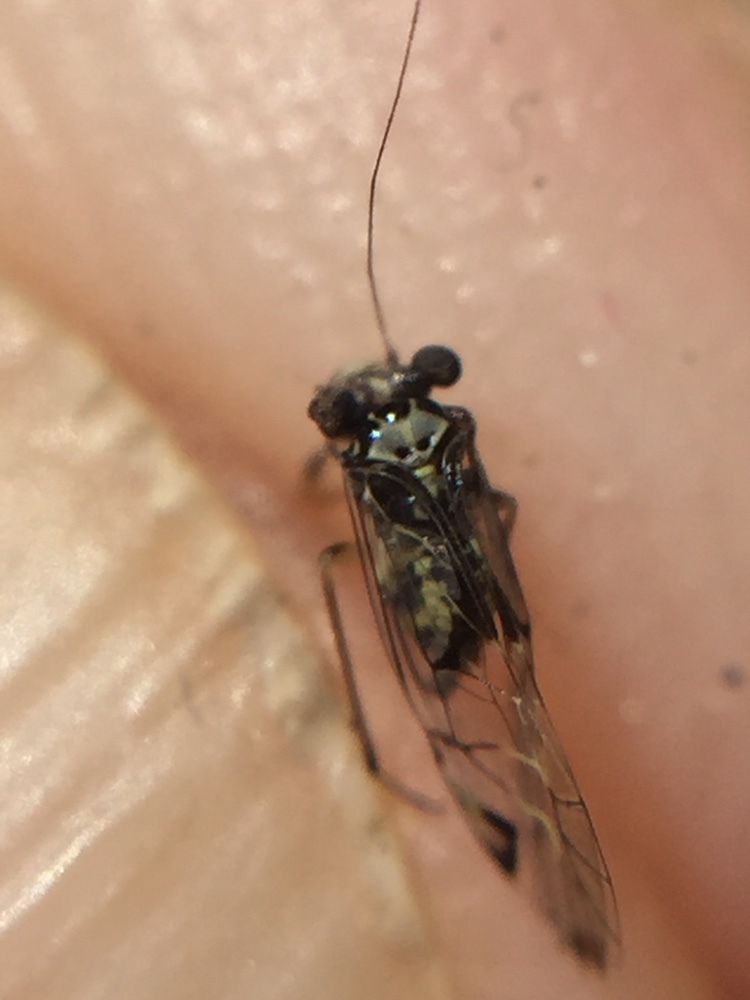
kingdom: Animalia
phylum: Arthropoda
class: Insecta
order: Psocodea
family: Psocidae
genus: Blaste
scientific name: Blaste tillyardi
